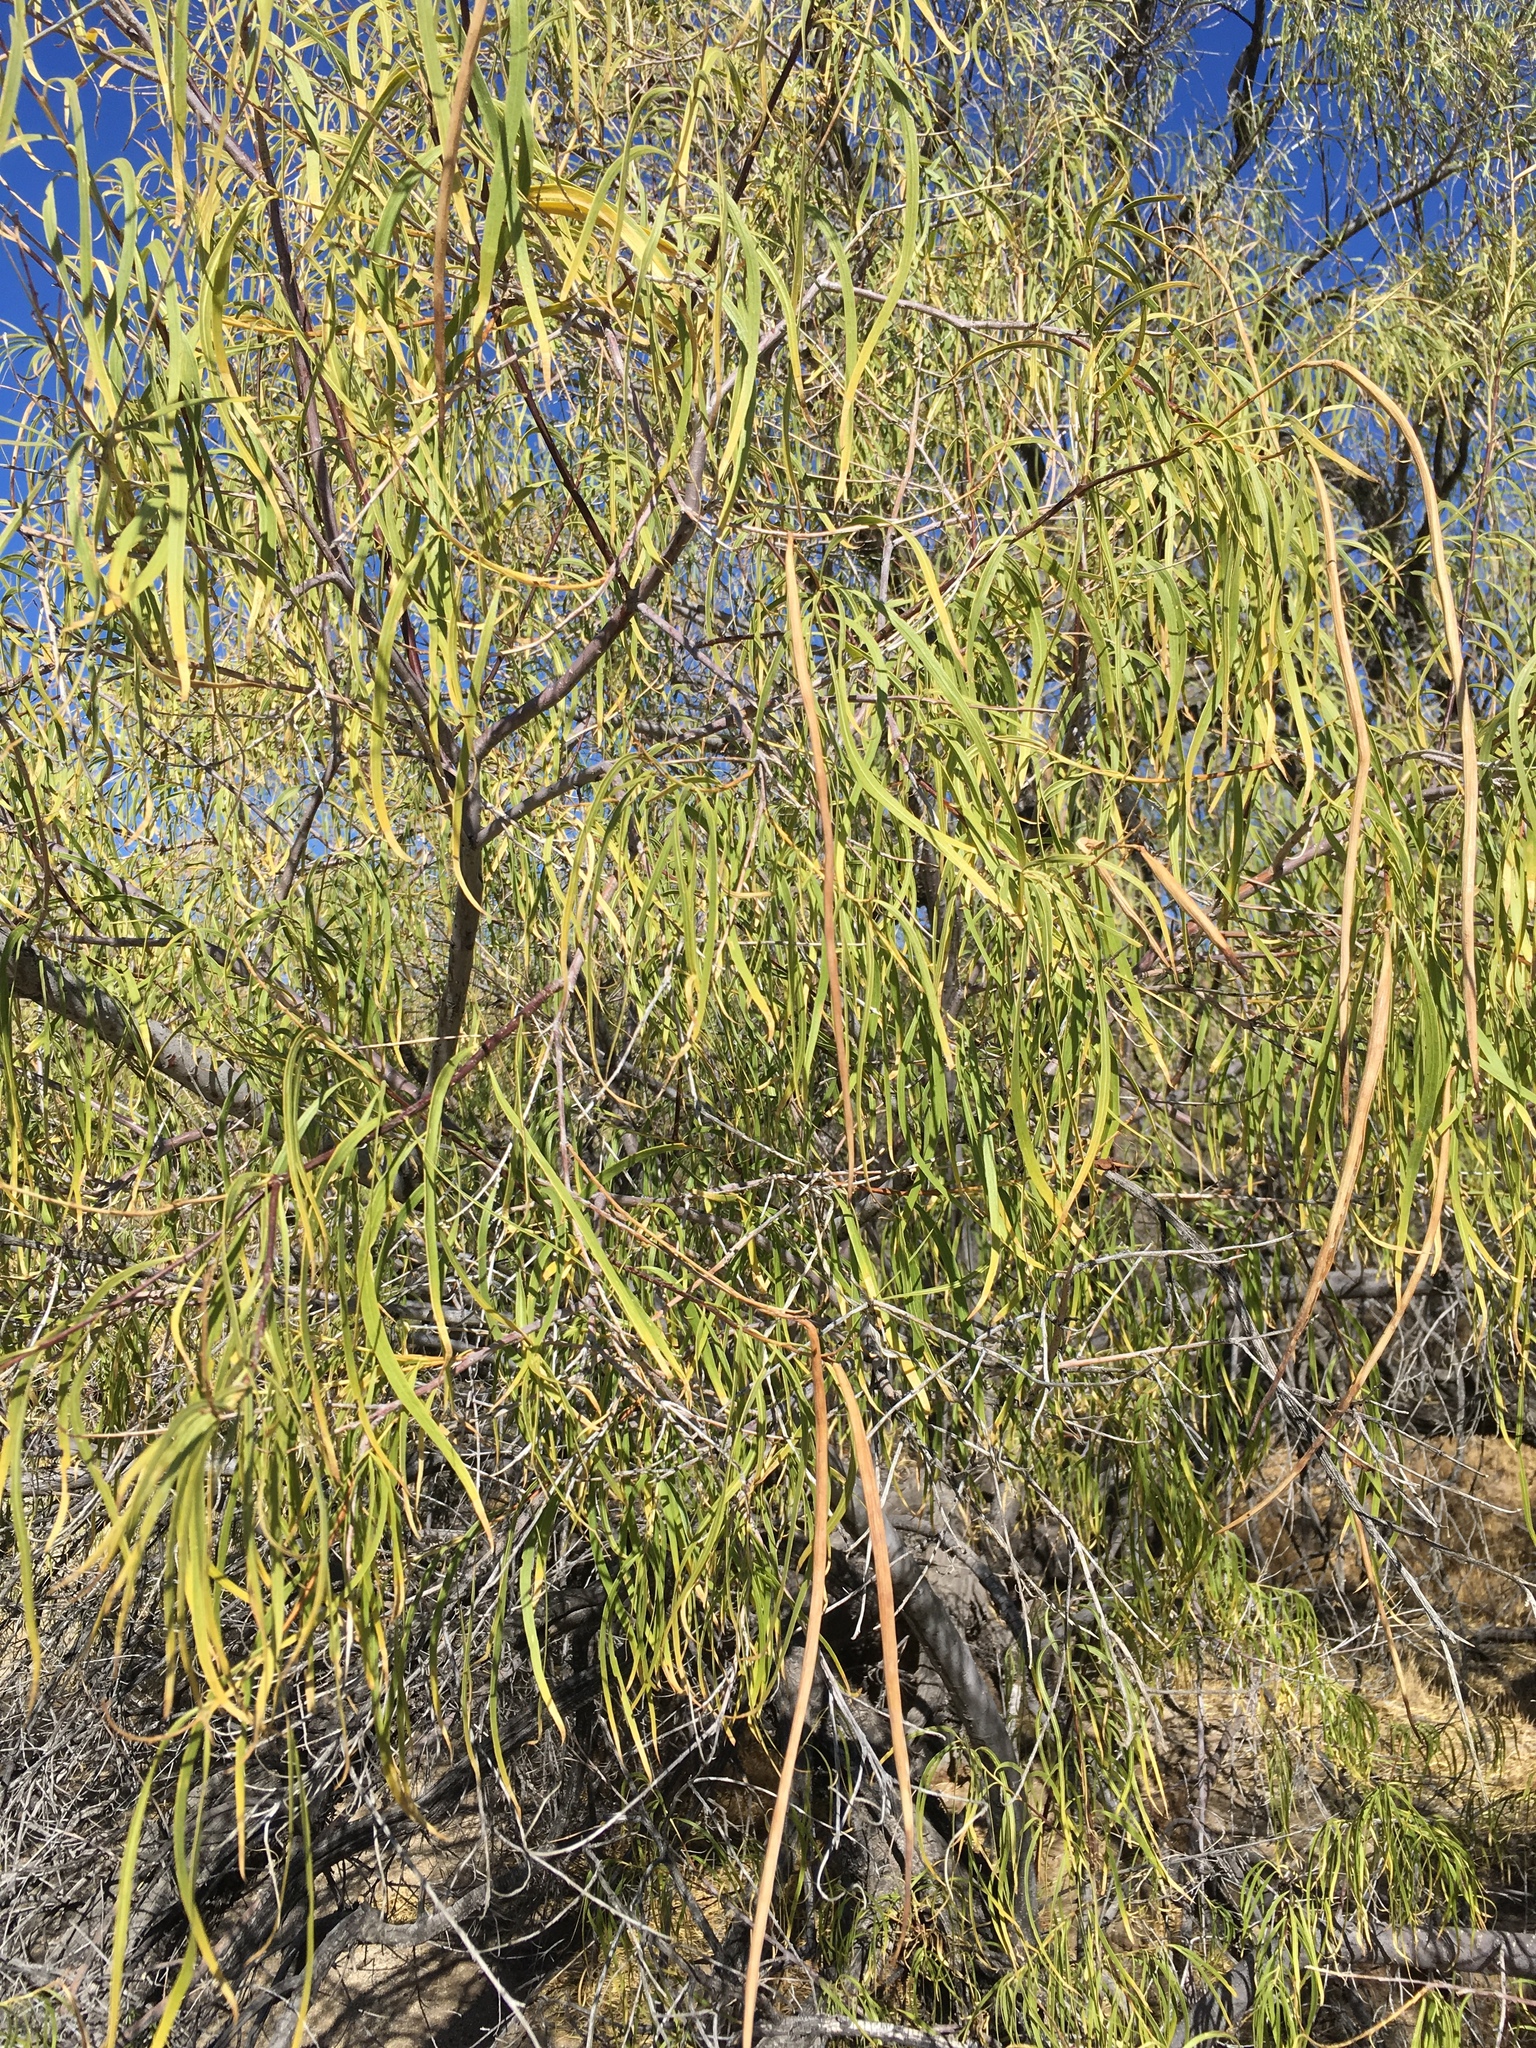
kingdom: Plantae
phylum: Tracheophyta
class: Magnoliopsida
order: Lamiales
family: Bignoniaceae
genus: Chilopsis
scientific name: Chilopsis linearis
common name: Desert-willow
